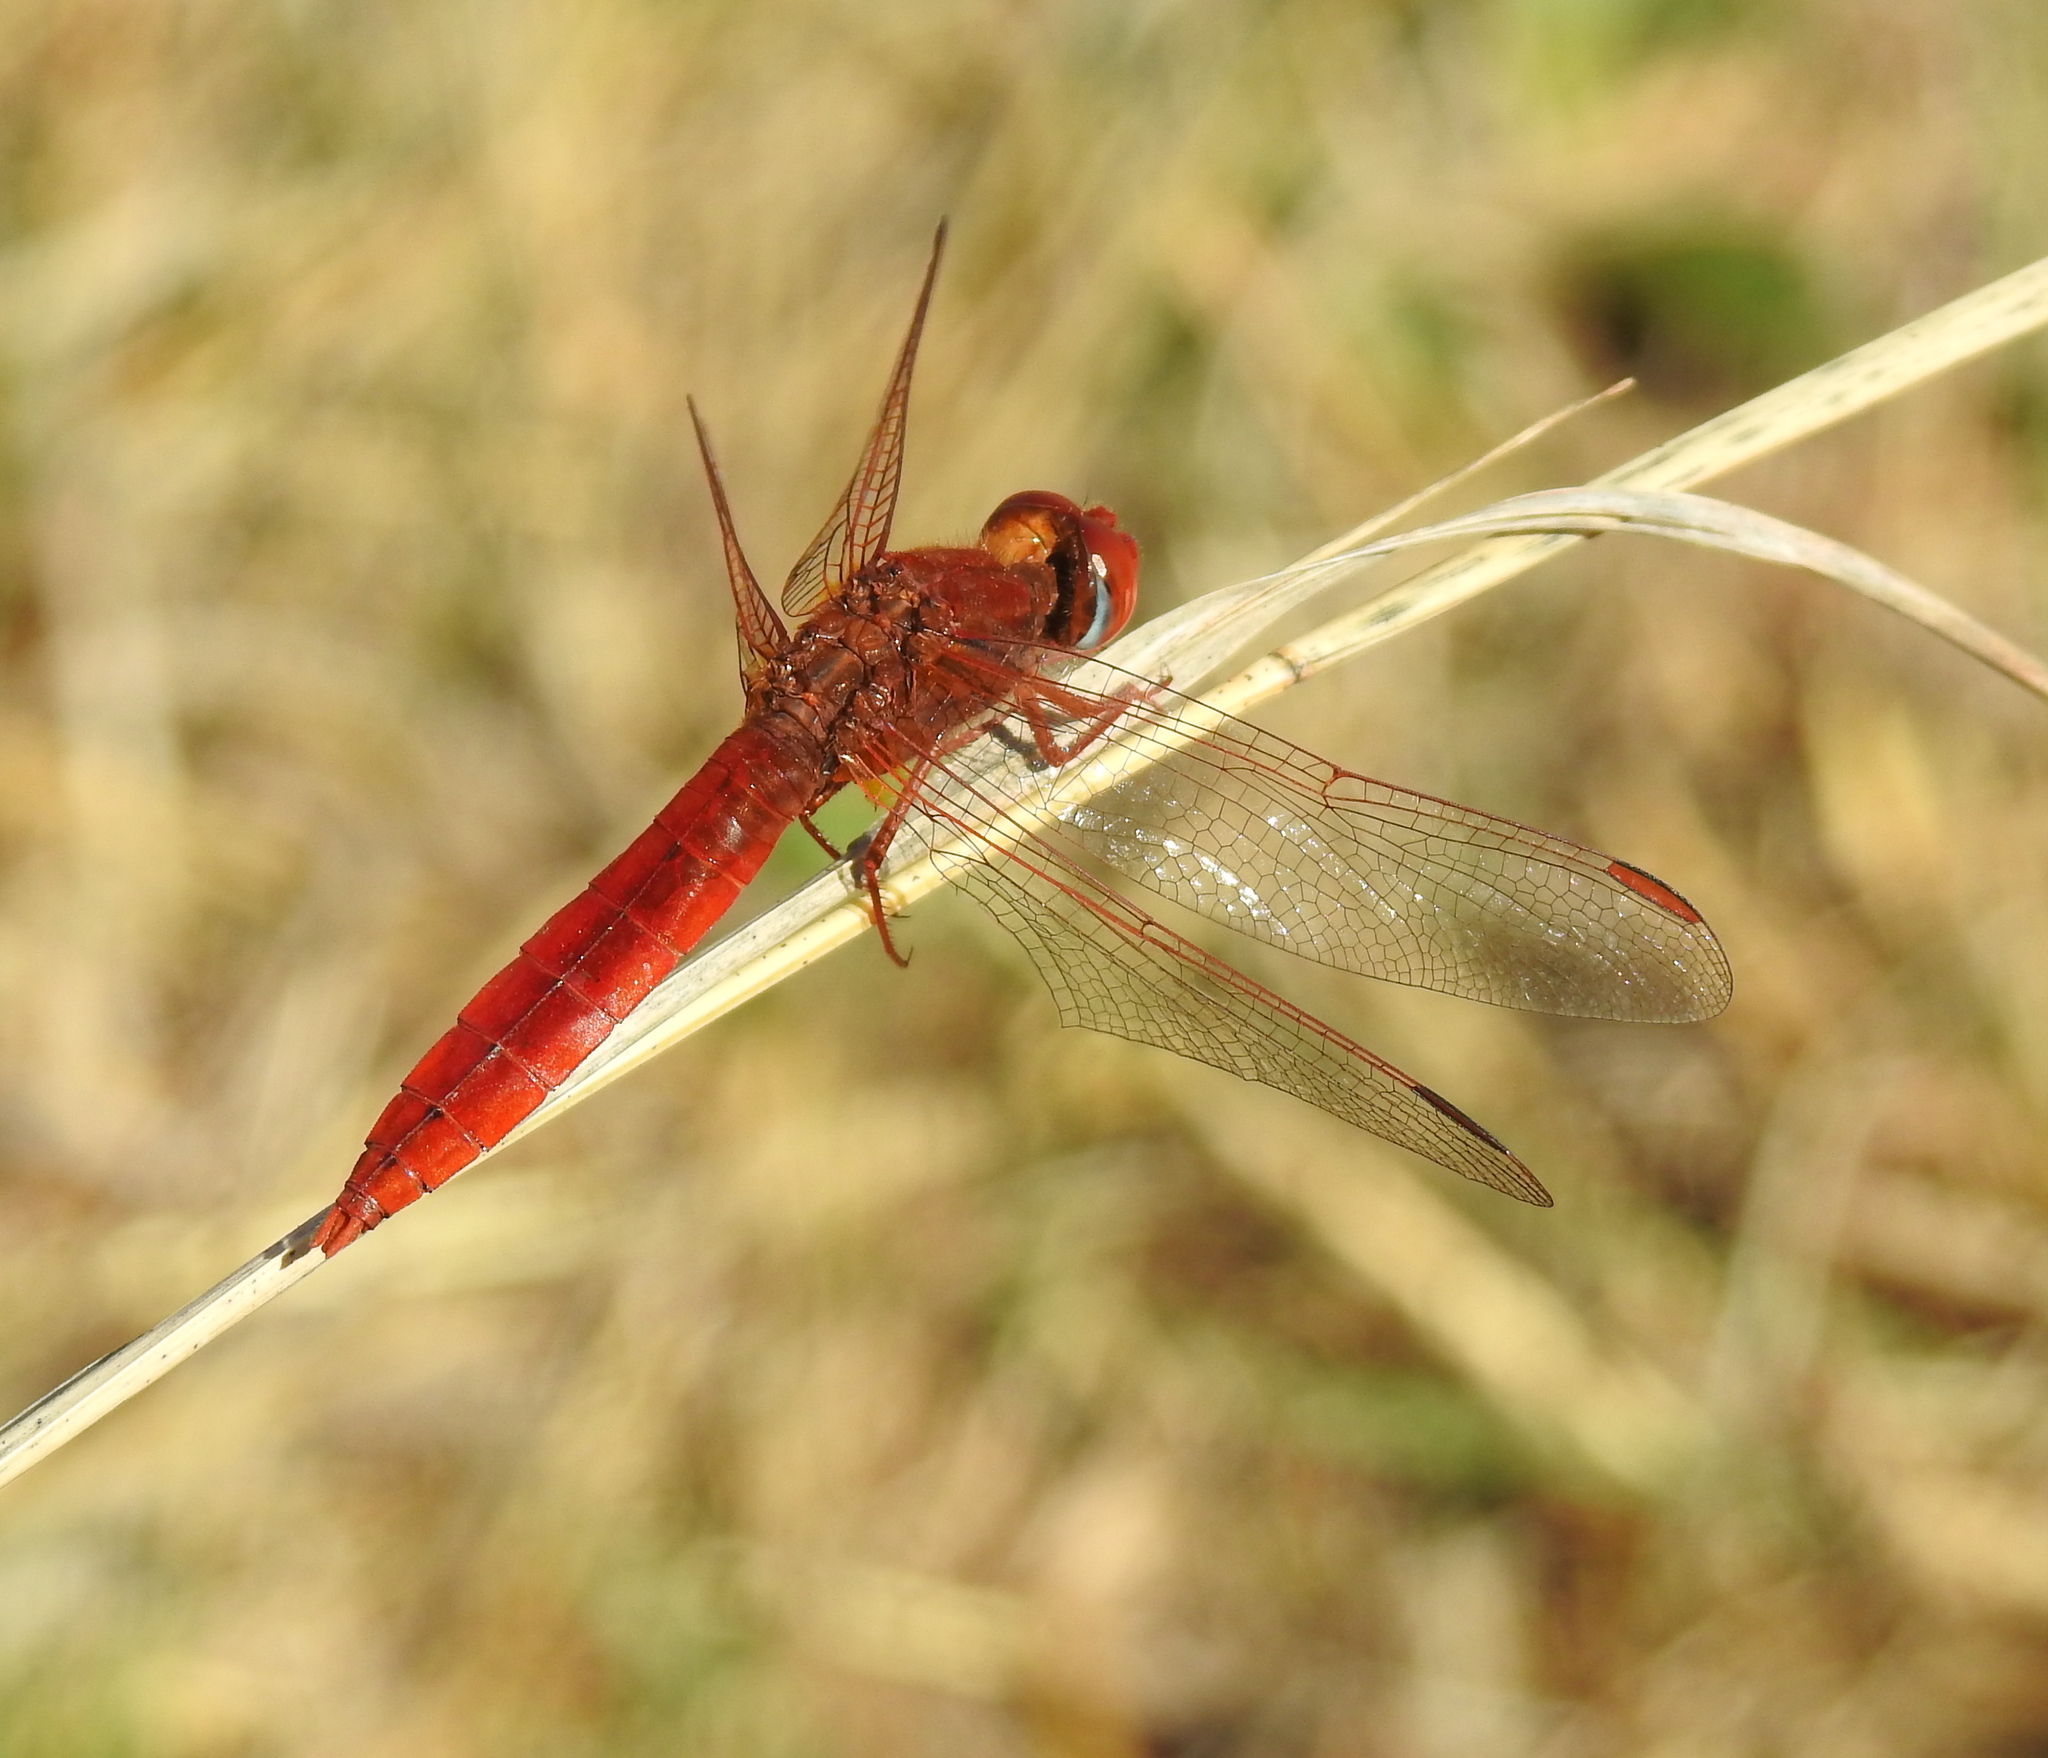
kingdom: Animalia
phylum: Arthropoda
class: Insecta
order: Odonata
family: Libellulidae
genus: Crocothemis
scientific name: Crocothemis erythraea
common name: Scarlet dragonfly
